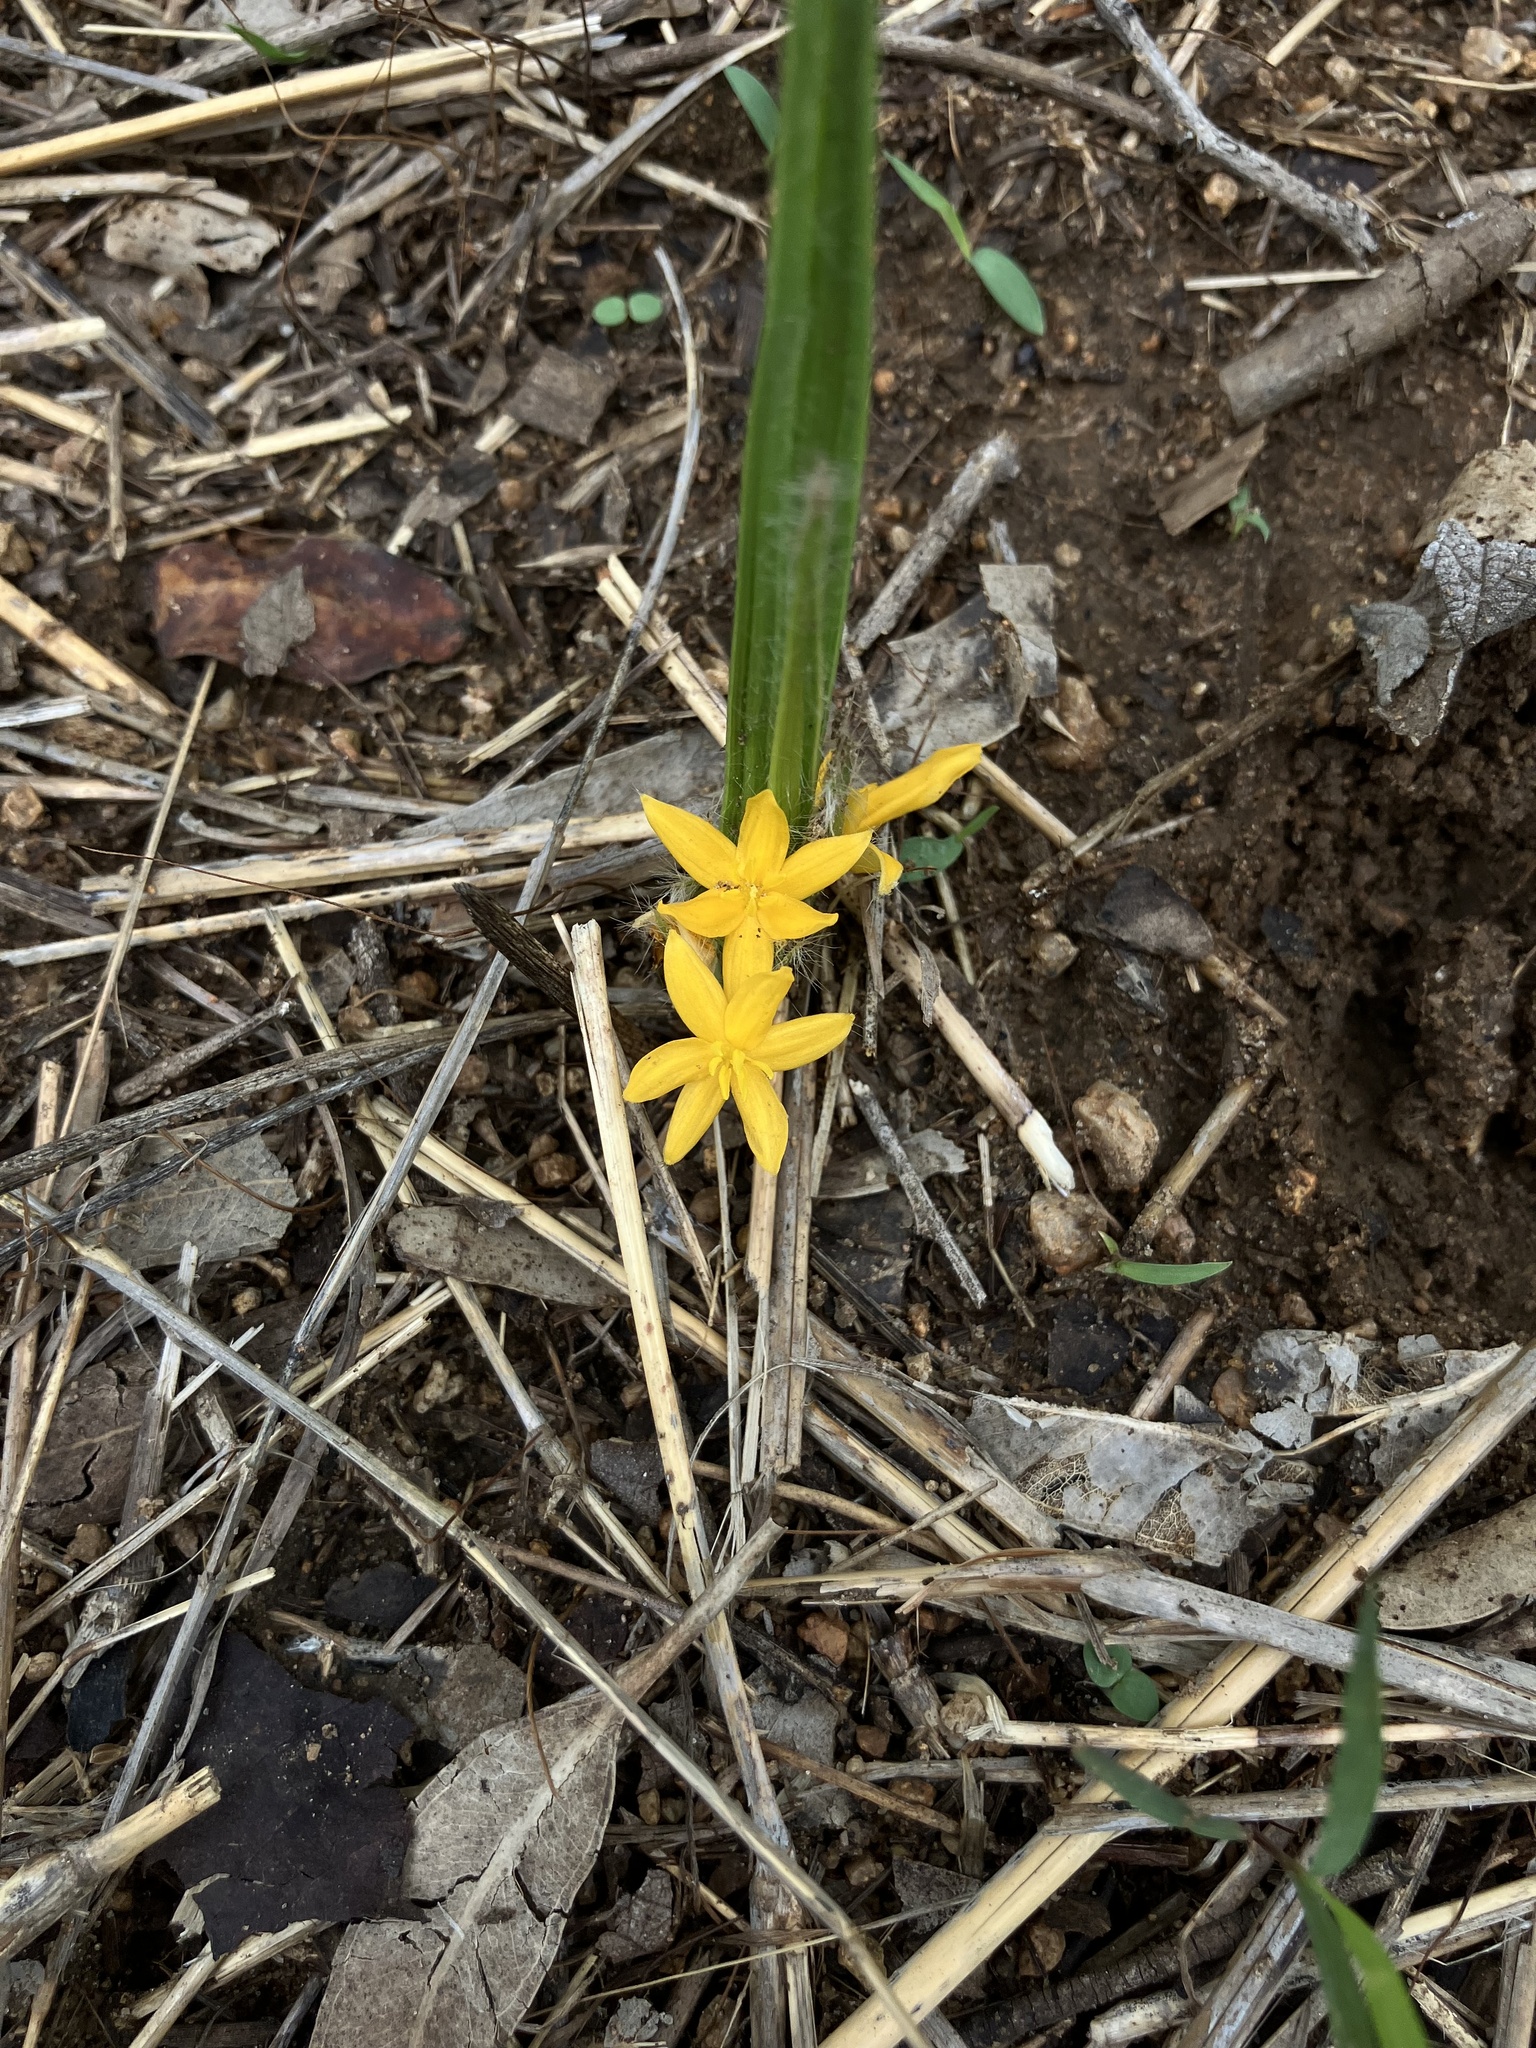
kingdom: Plantae
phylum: Tracheophyta
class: Liliopsida
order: Asparagales
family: Hypoxidaceae
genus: Curculigo
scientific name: Curculigo orchioides
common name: Golden eye-grass
